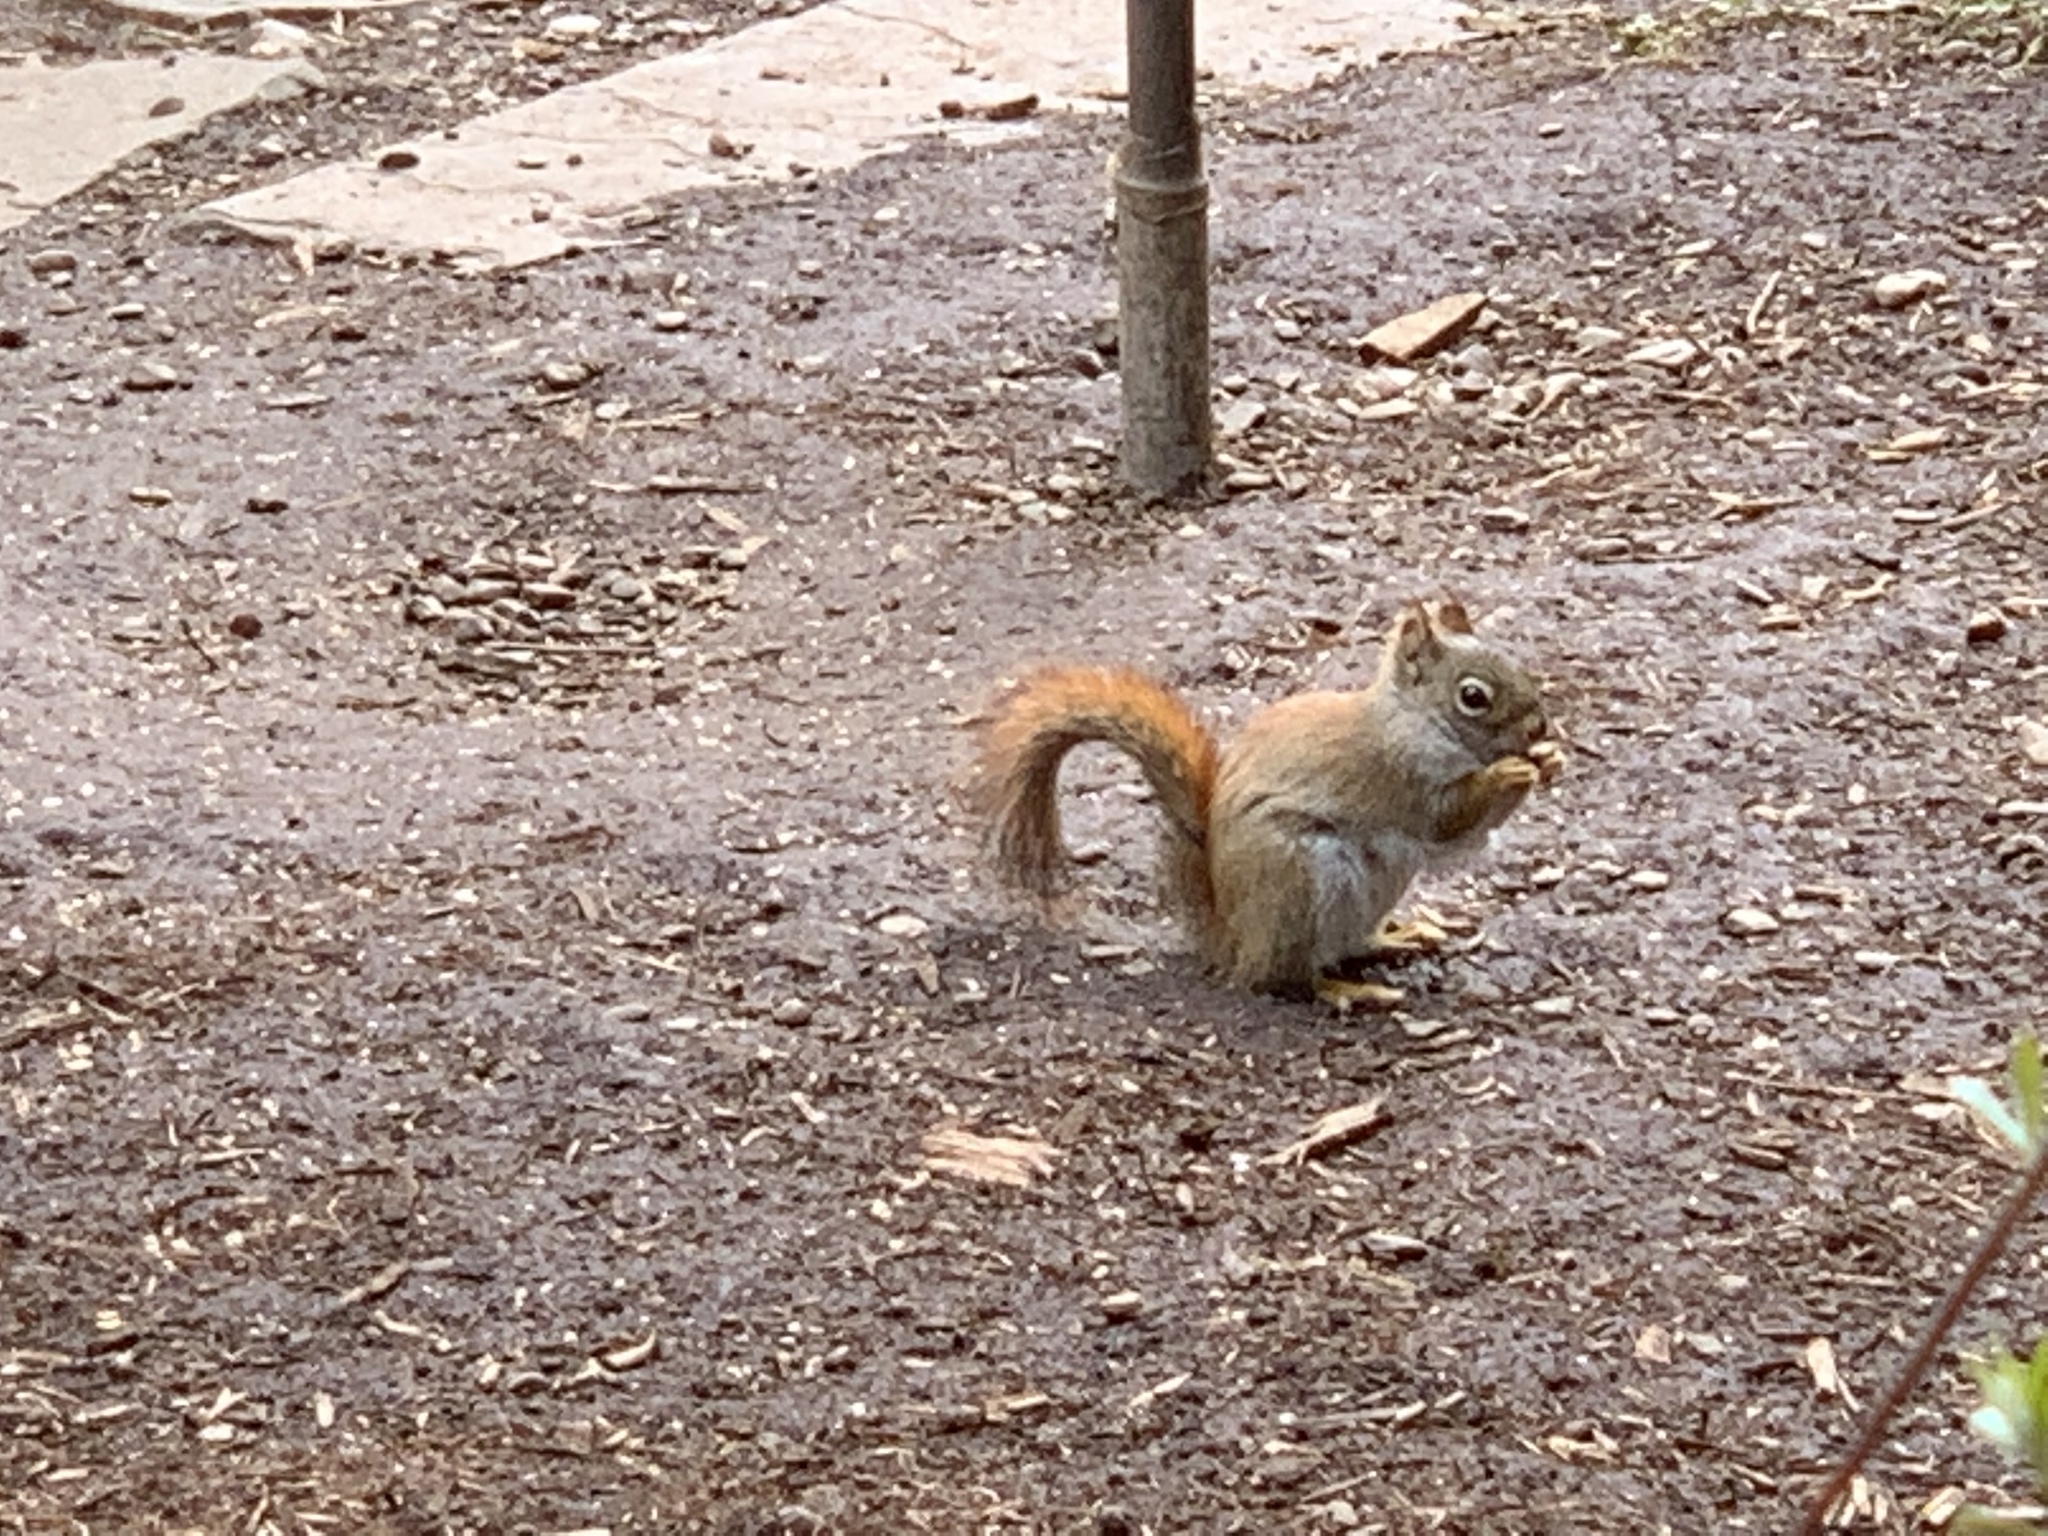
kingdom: Animalia
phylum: Chordata
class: Mammalia
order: Rodentia
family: Sciuridae
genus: Tamiasciurus
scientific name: Tamiasciurus hudsonicus
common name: Red squirrel
